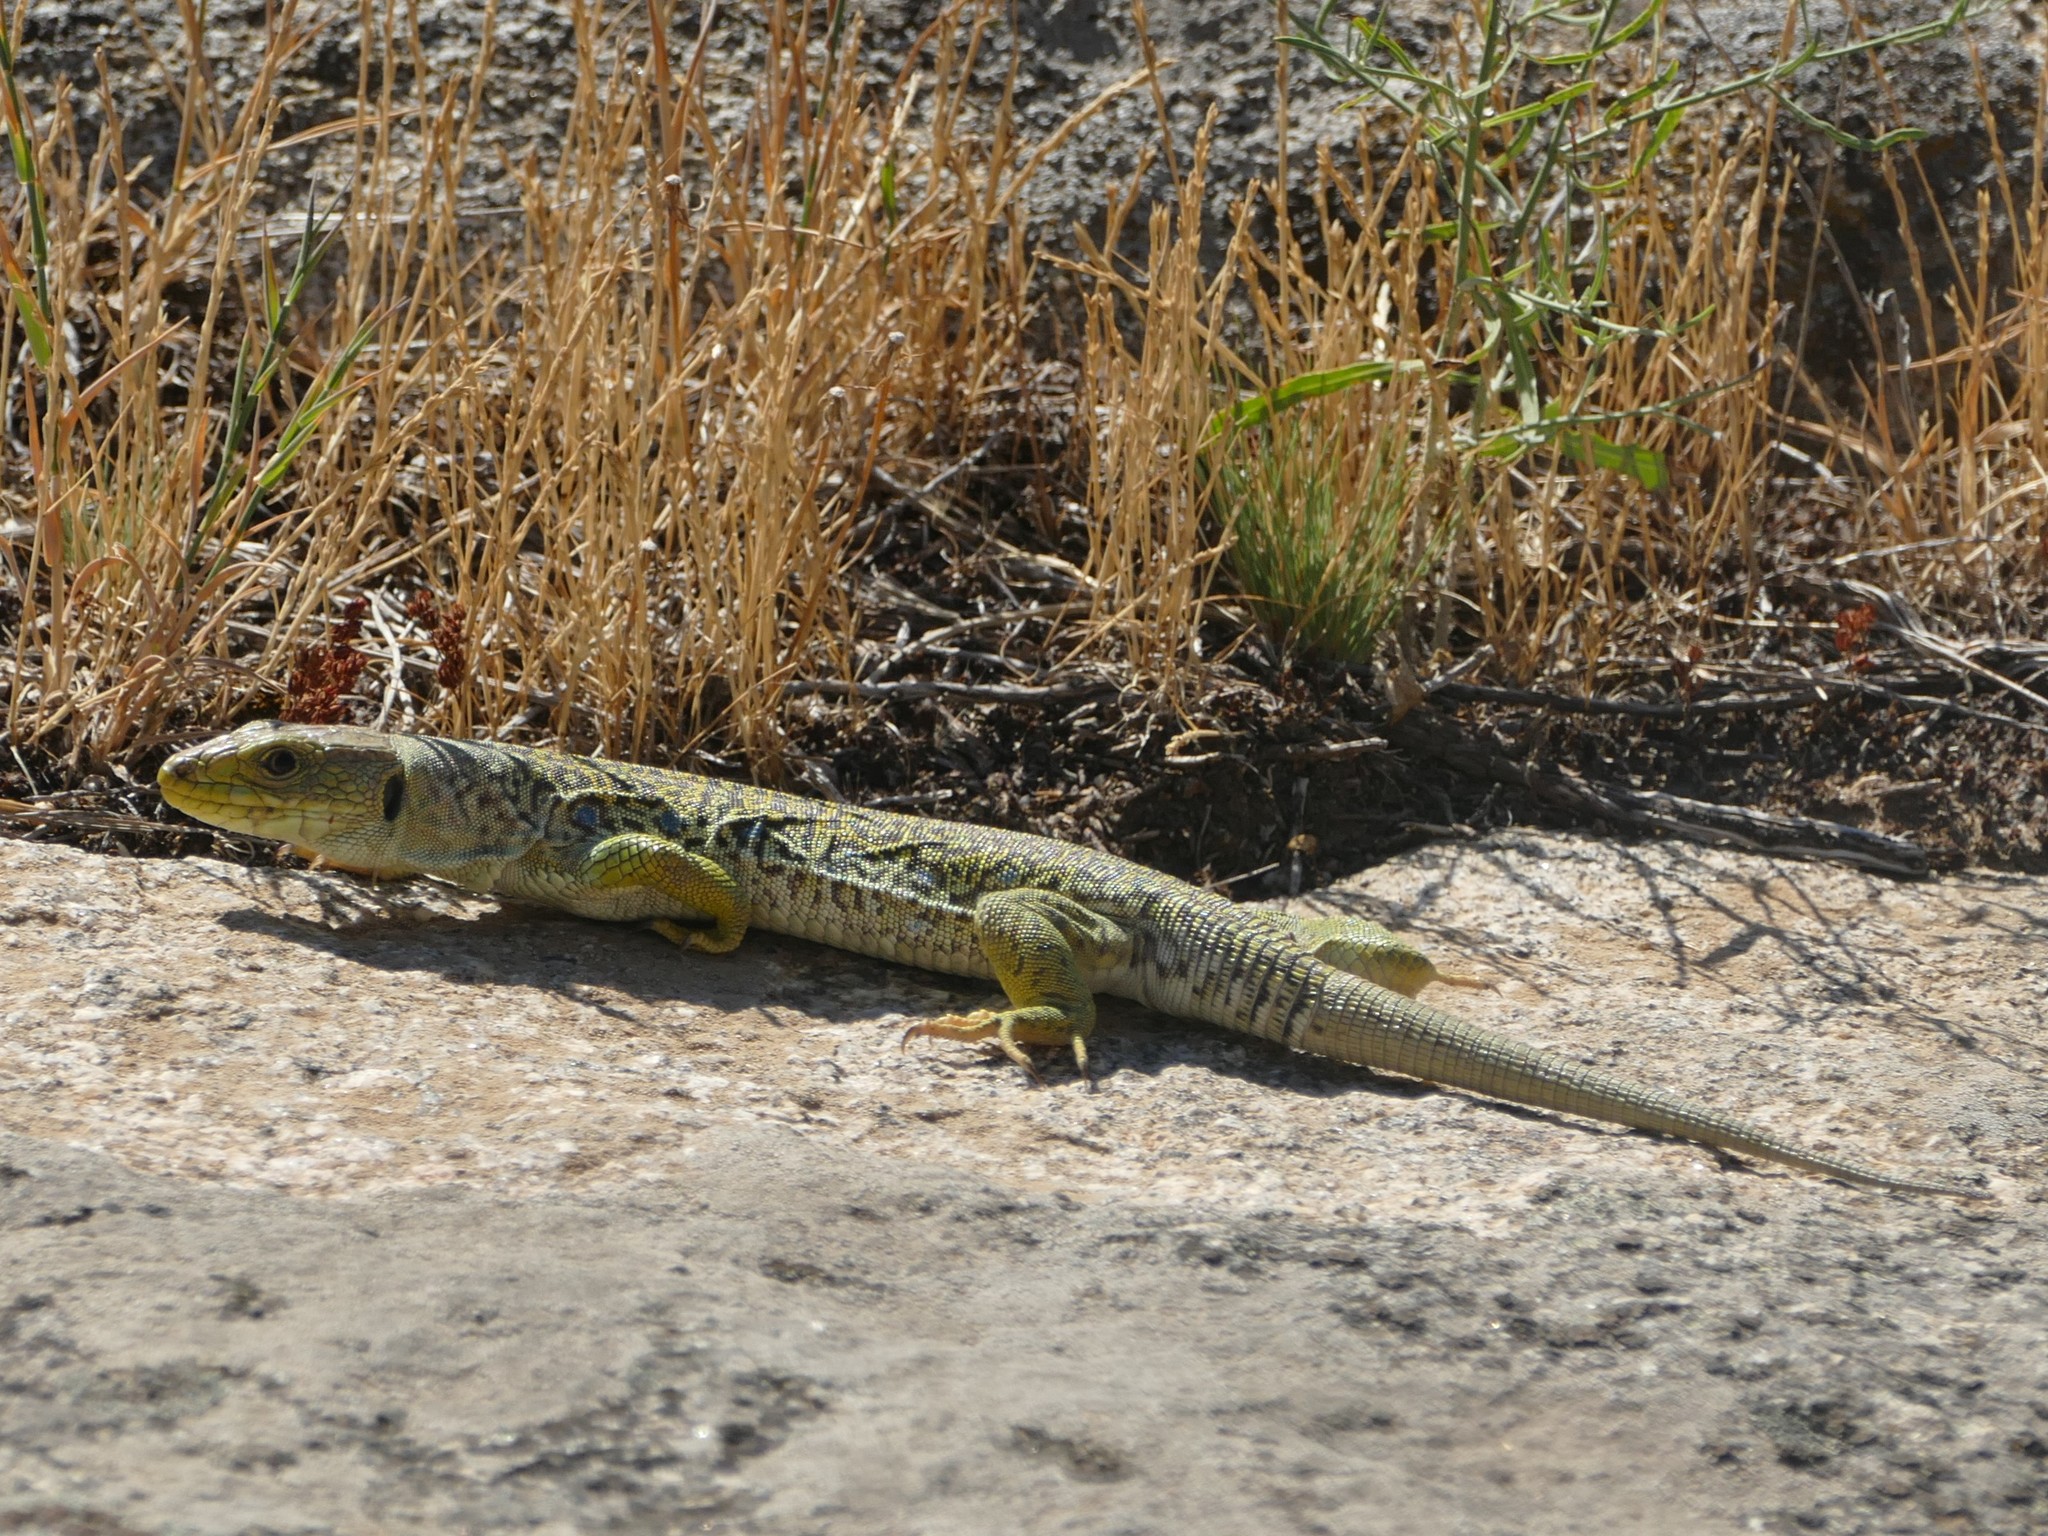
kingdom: Animalia
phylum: Chordata
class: Squamata
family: Lacertidae
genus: Timon
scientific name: Timon lepidus
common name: Ocellated lizard
